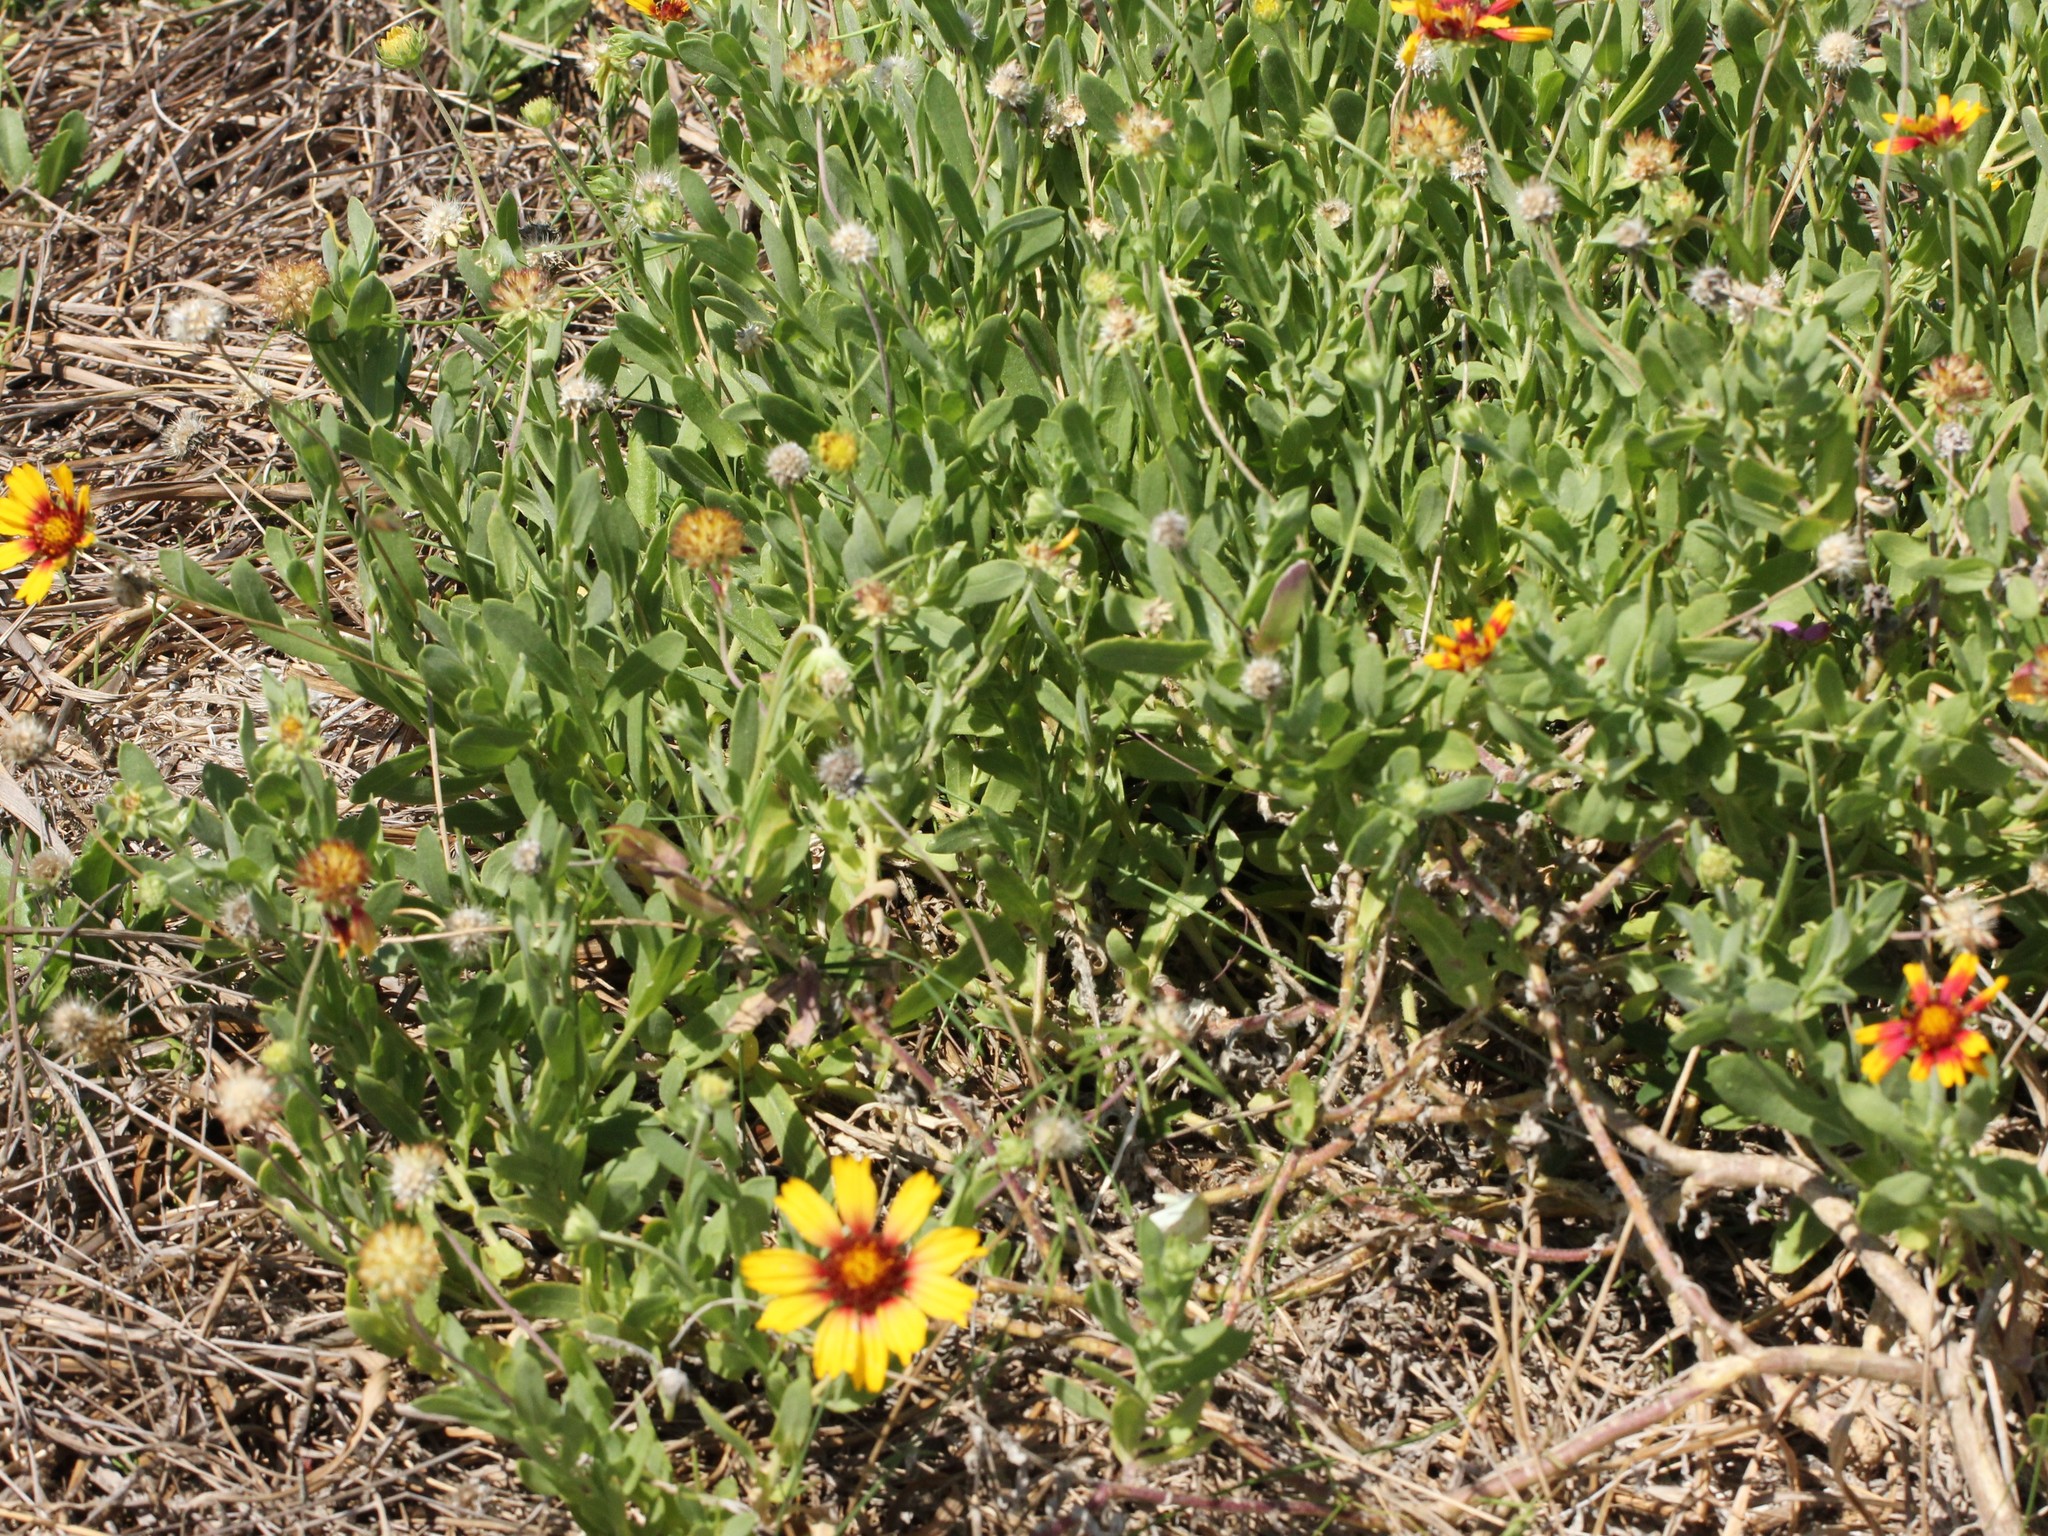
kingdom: Plantae
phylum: Tracheophyta
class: Magnoliopsida
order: Asterales
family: Asteraceae
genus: Gaillardia
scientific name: Gaillardia pulchella
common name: Firewheel
